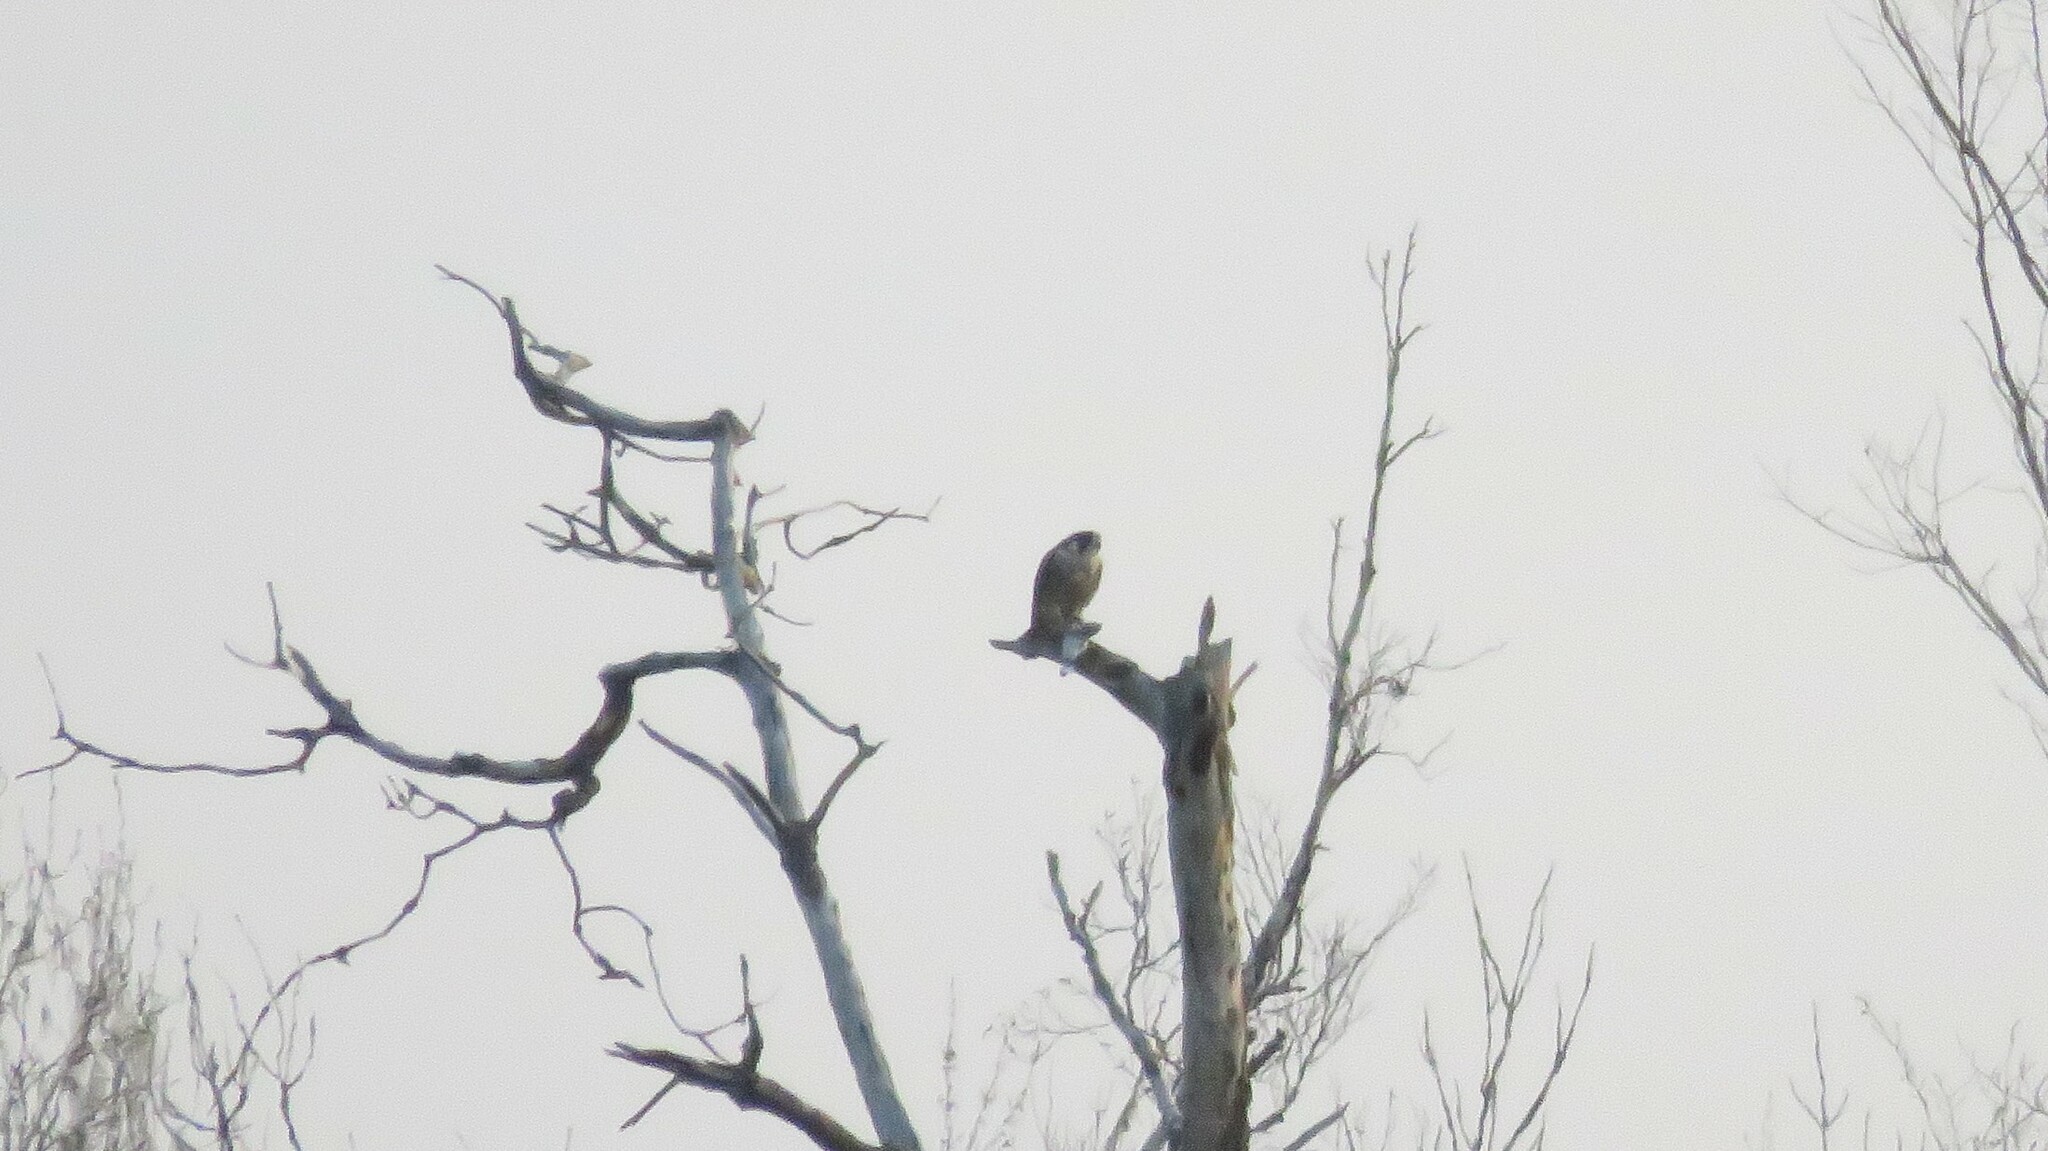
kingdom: Animalia
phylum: Chordata
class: Aves
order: Falconiformes
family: Falconidae
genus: Falco
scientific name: Falco peregrinus
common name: Peregrine falcon
